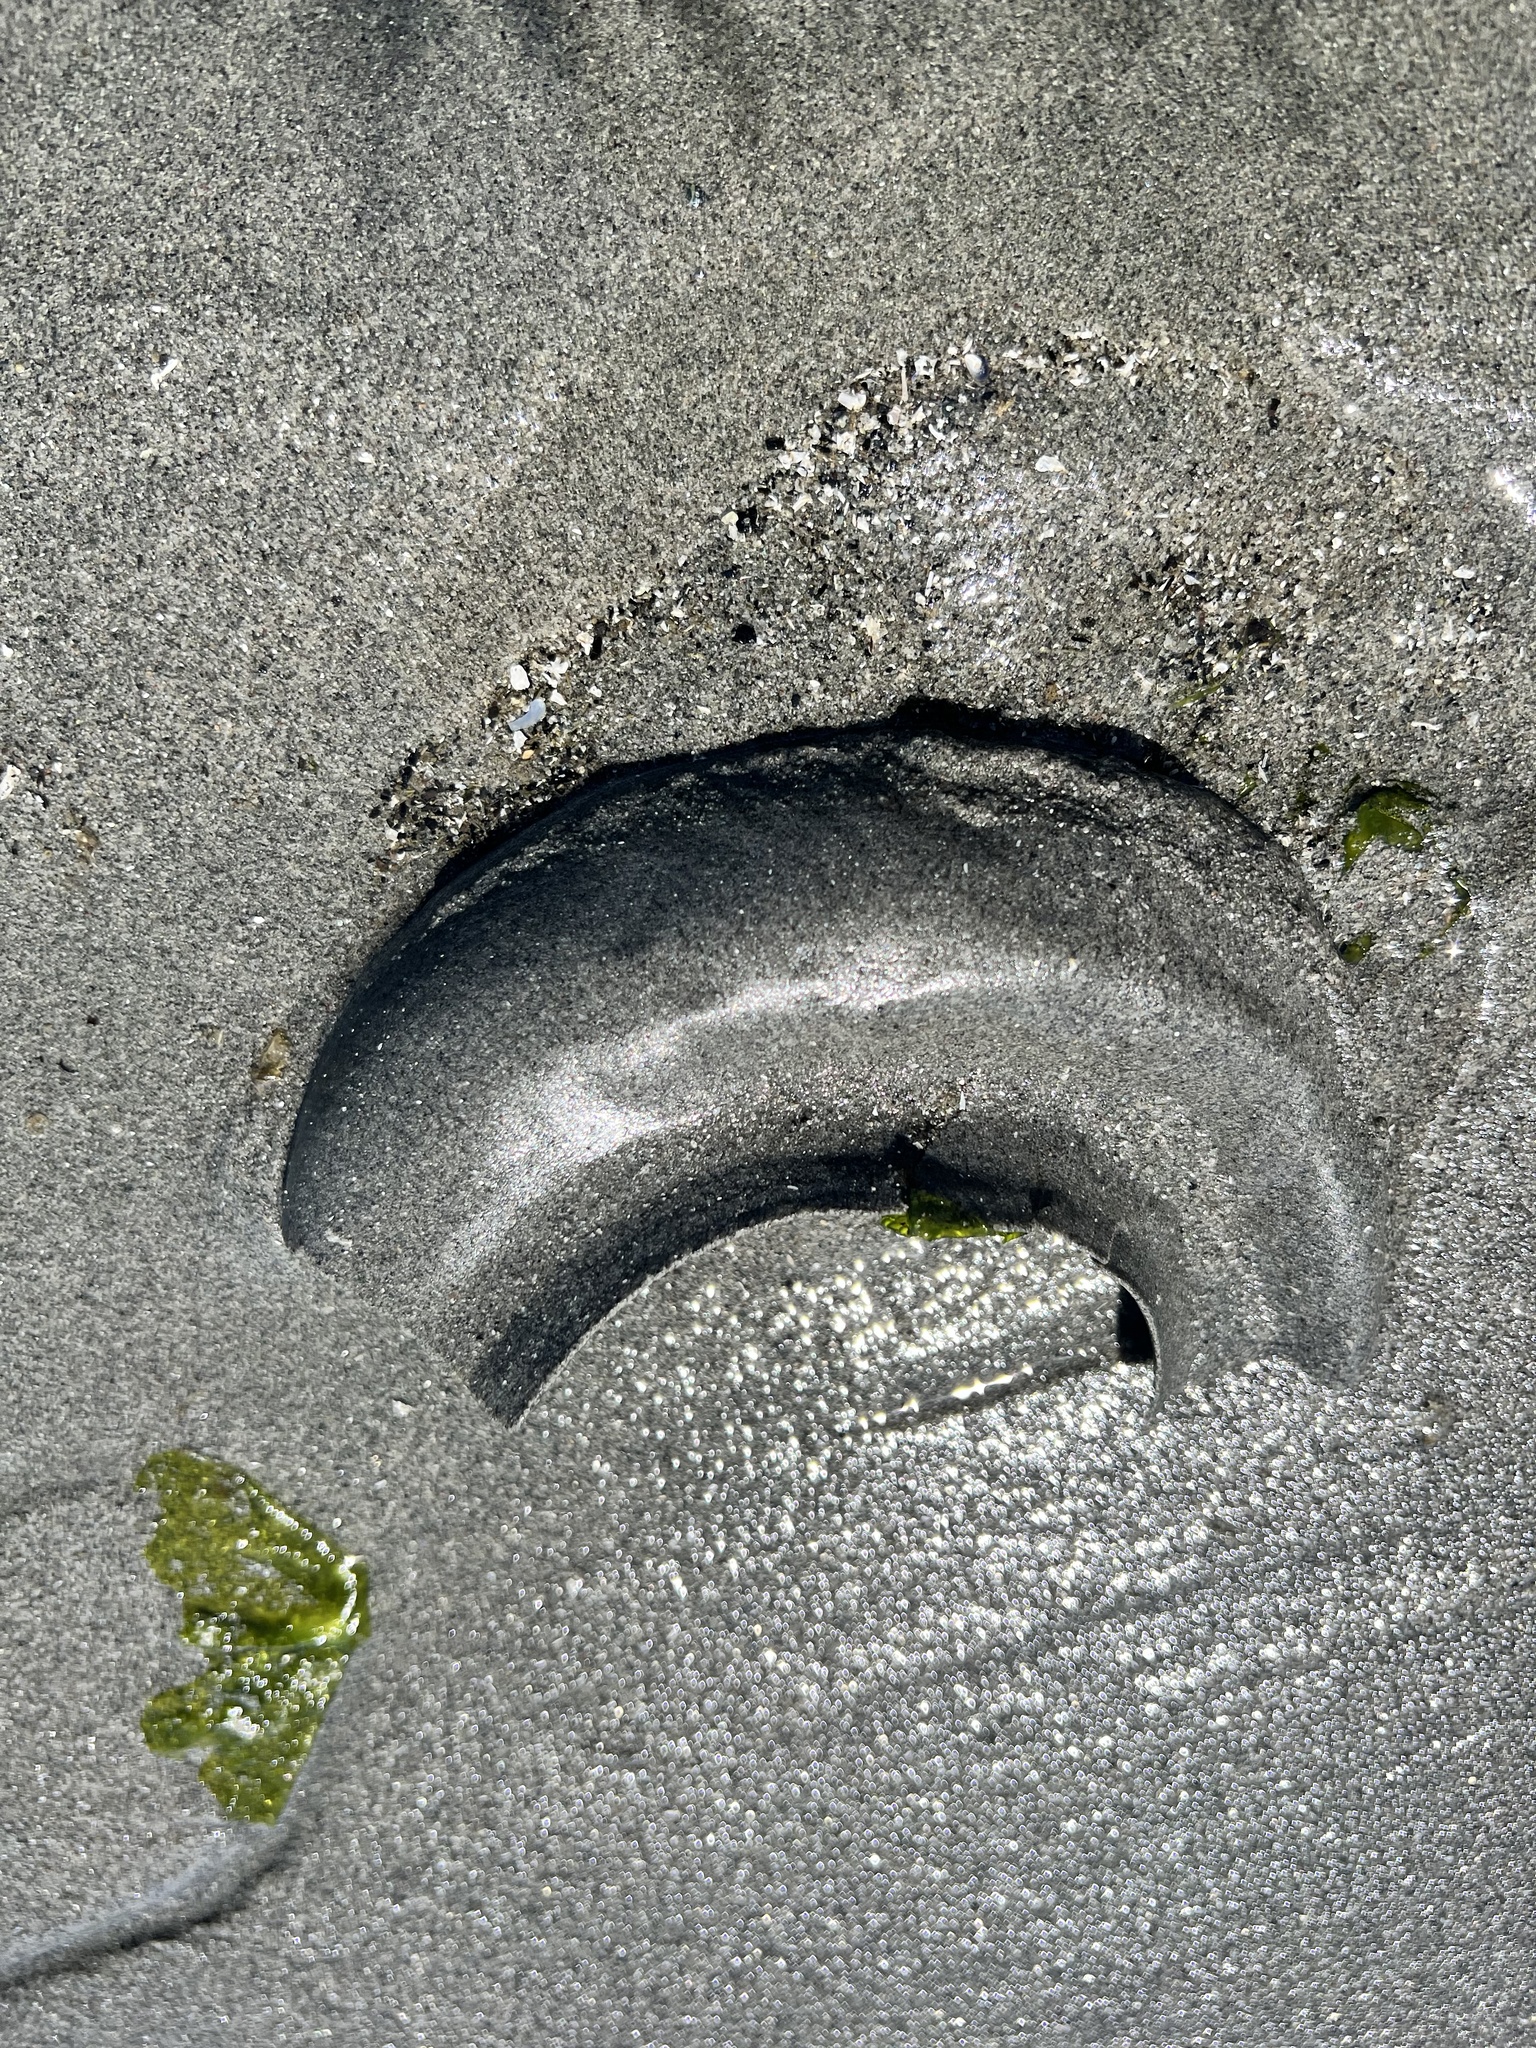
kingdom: Animalia
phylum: Mollusca
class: Gastropoda
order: Littorinimorpha
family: Naticidae
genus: Neverita
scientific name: Neverita lewisii
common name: Lewis' moonsnail
